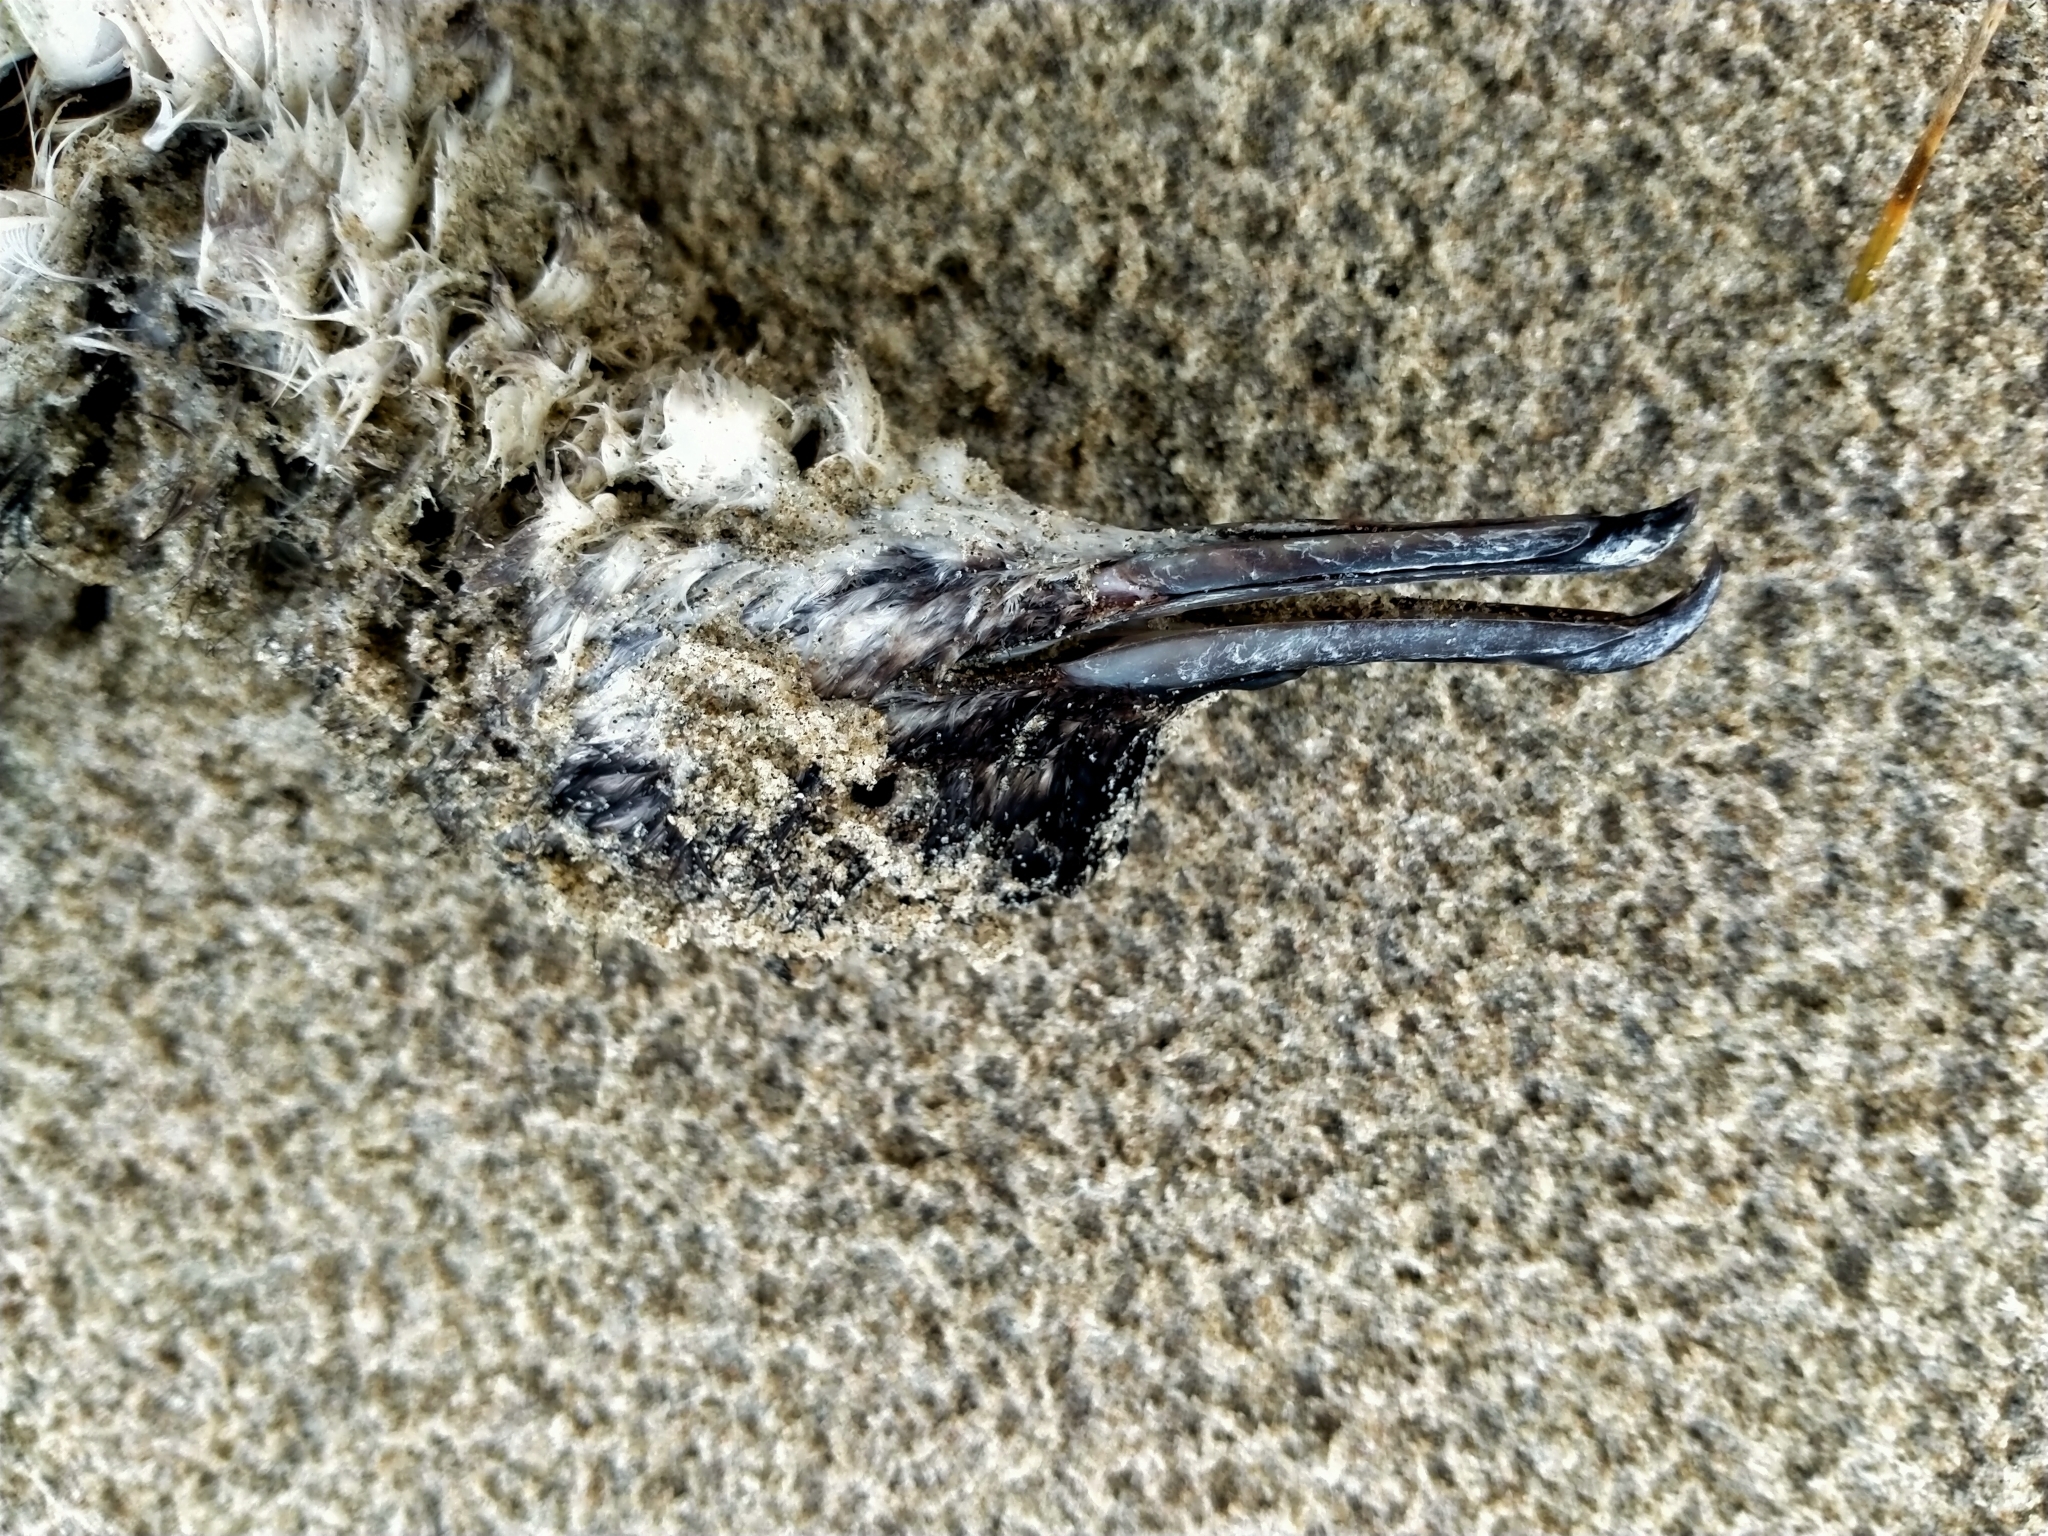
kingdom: Animalia
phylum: Chordata
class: Aves
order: Procellariiformes
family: Procellariidae
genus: Puffinus
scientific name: Puffinus gavia
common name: Fluttering shearwater
